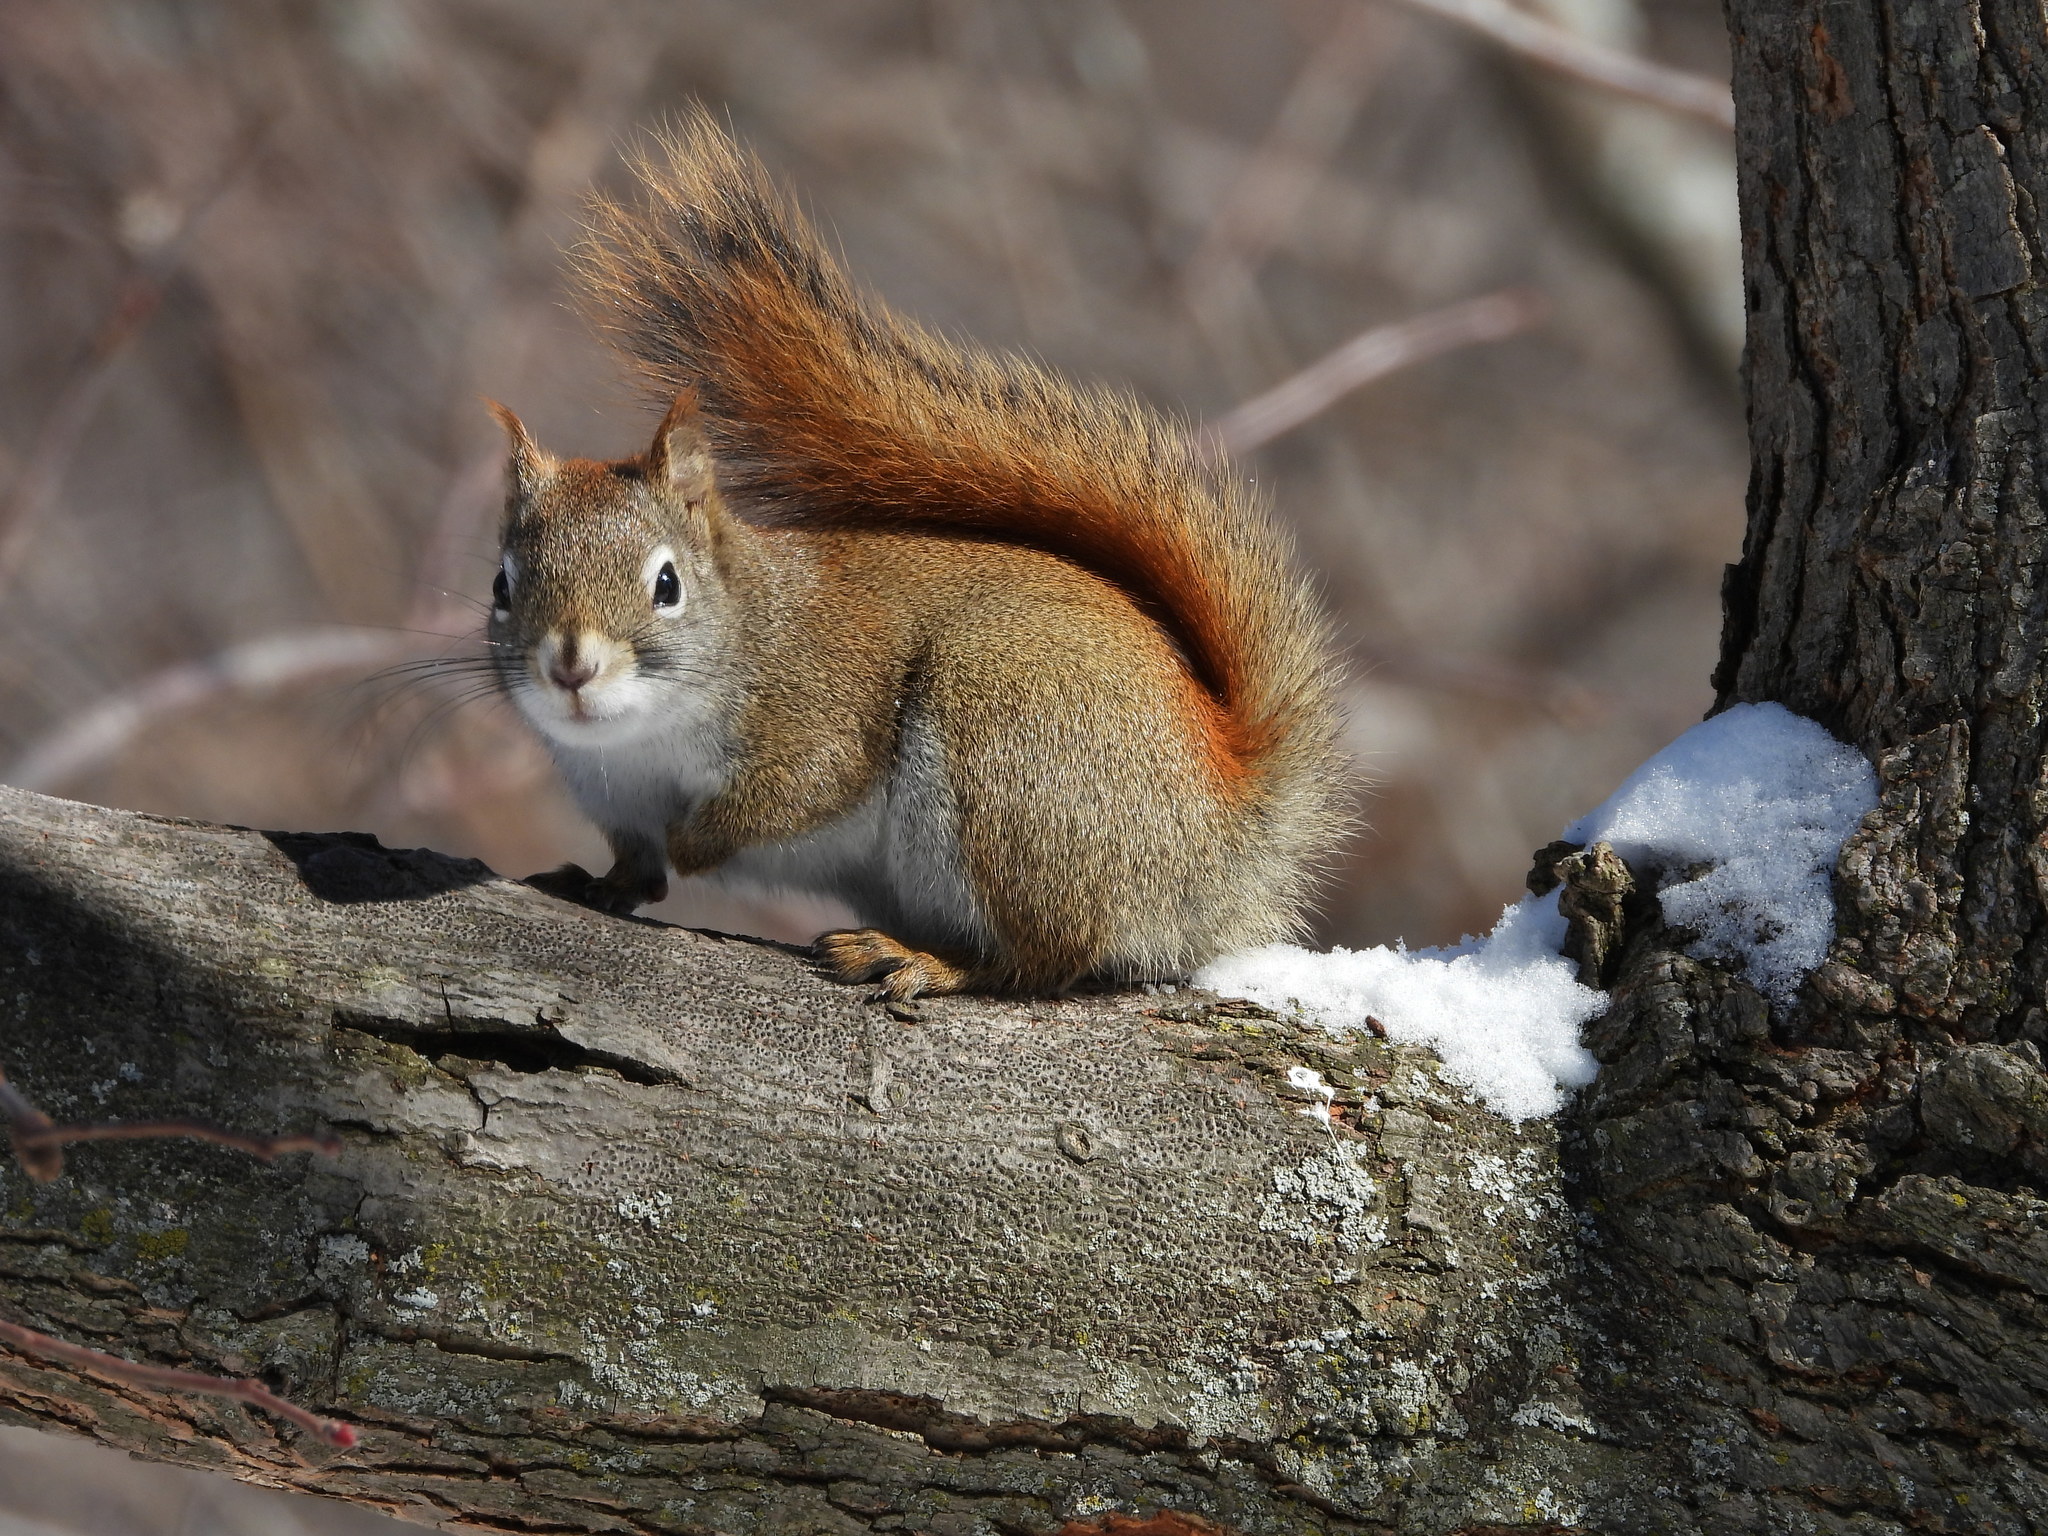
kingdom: Animalia
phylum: Chordata
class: Mammalia
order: Rodentia
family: Sciuridae
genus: Tamiasciurus
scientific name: Tamiasciurus hudsonicus
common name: Red squirrel
